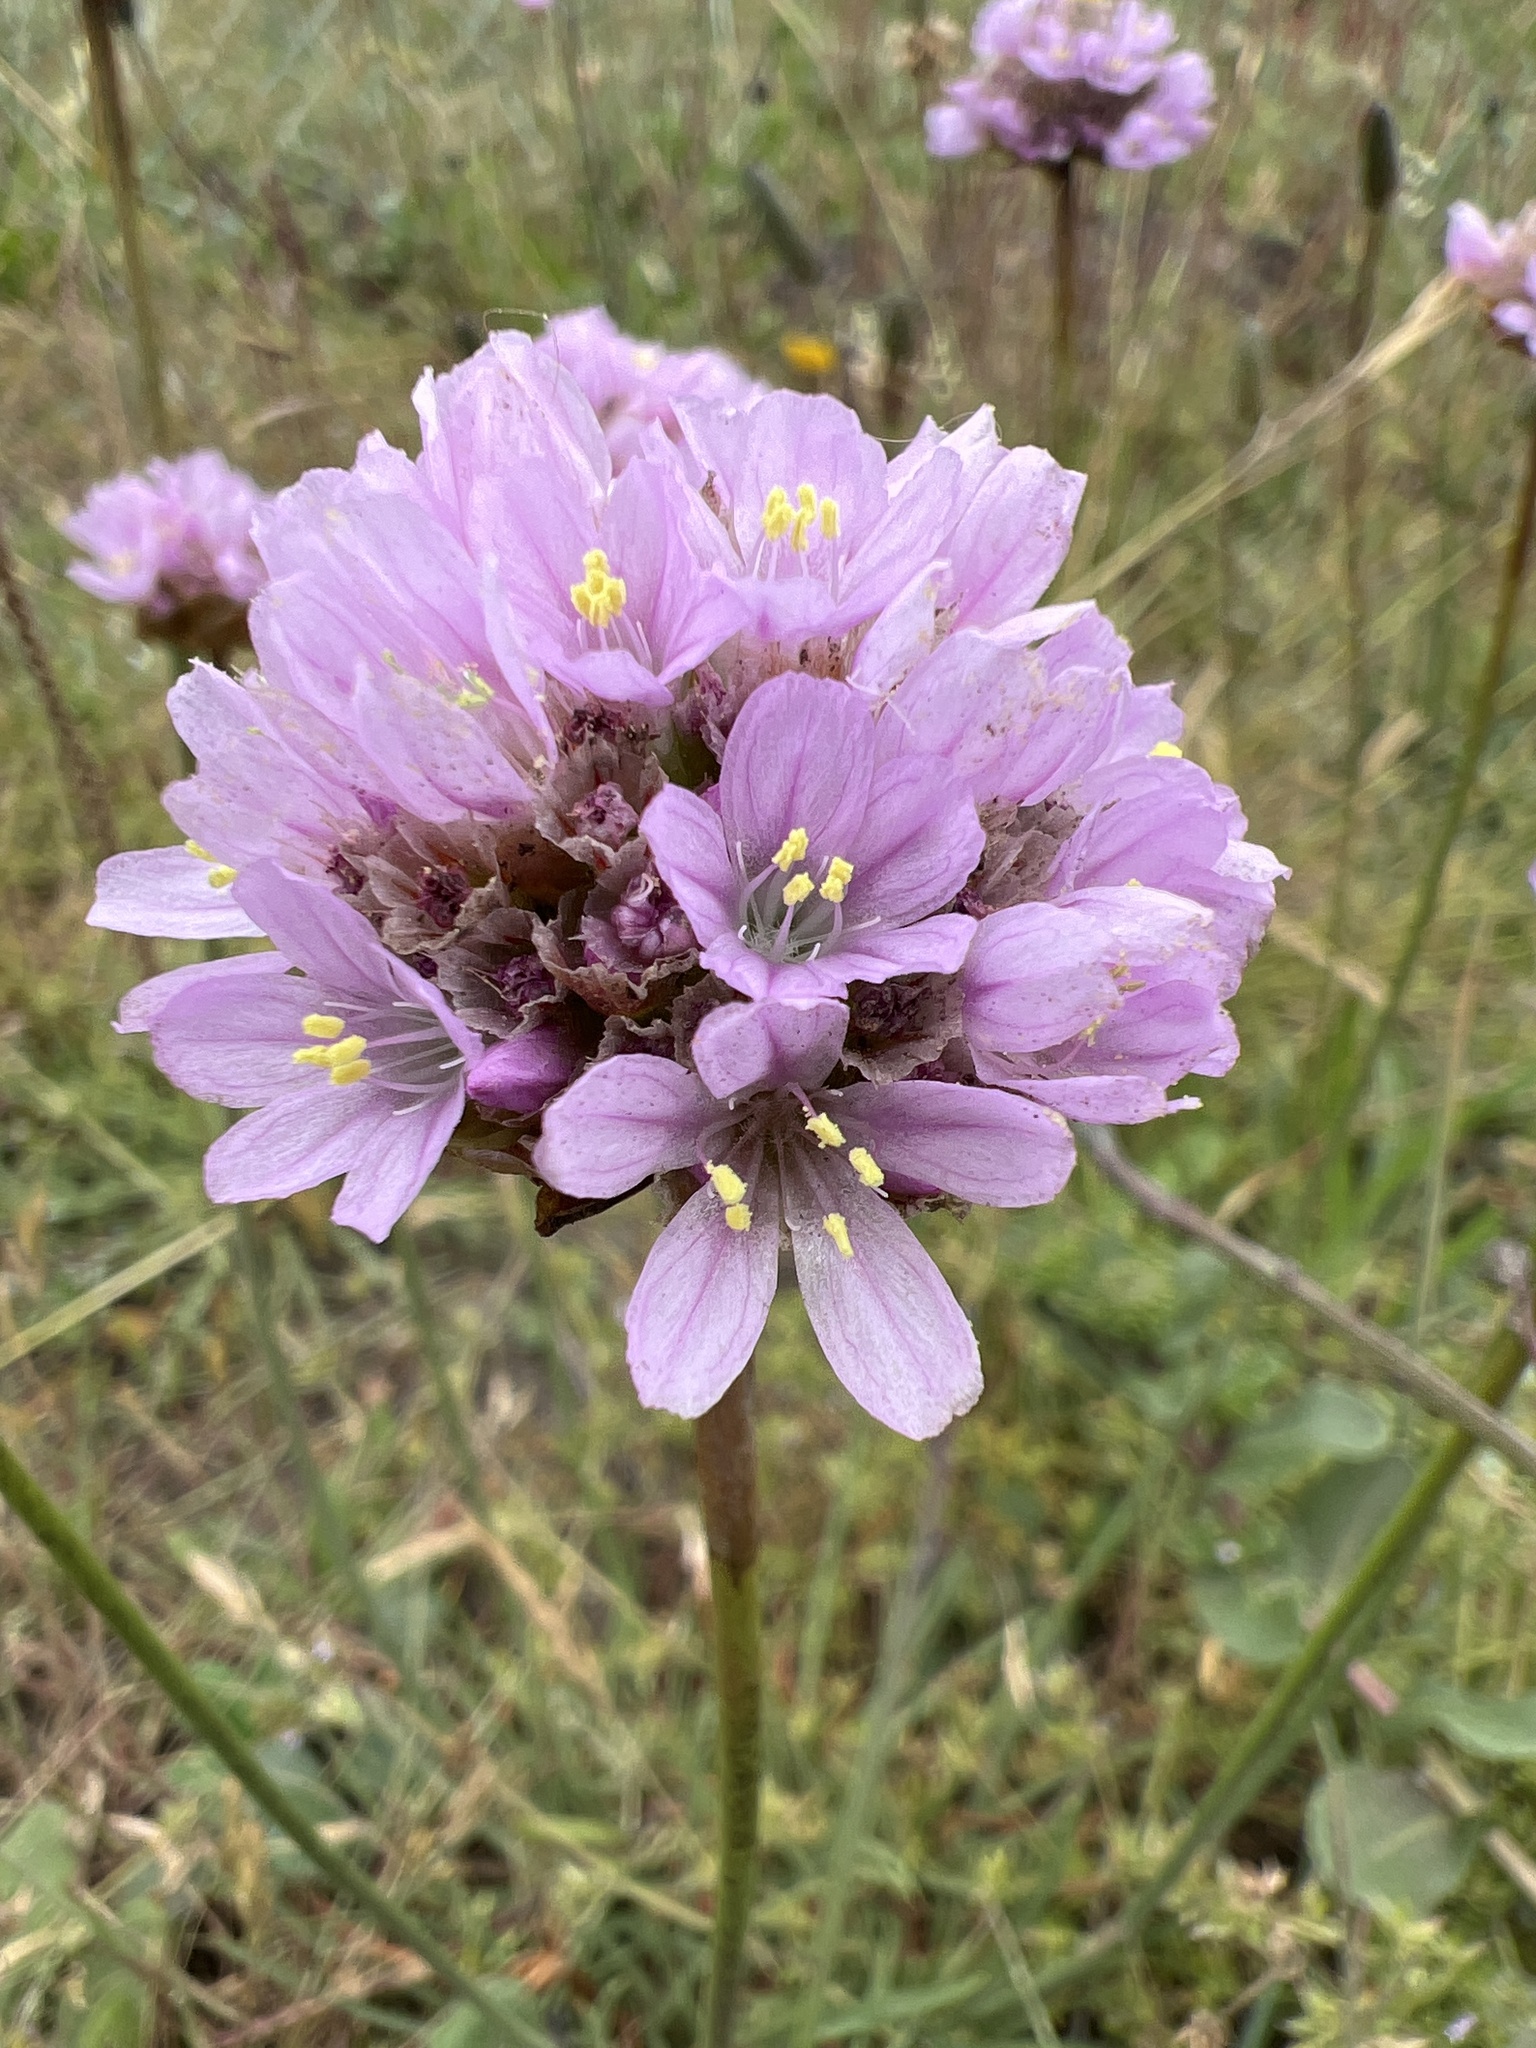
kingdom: Plantae
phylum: Tracheophyta
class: Magnoliopsida
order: Caryophyllales
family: Plumbaginaceae
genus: Armeria
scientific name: Armeria maritima
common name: Thrift
